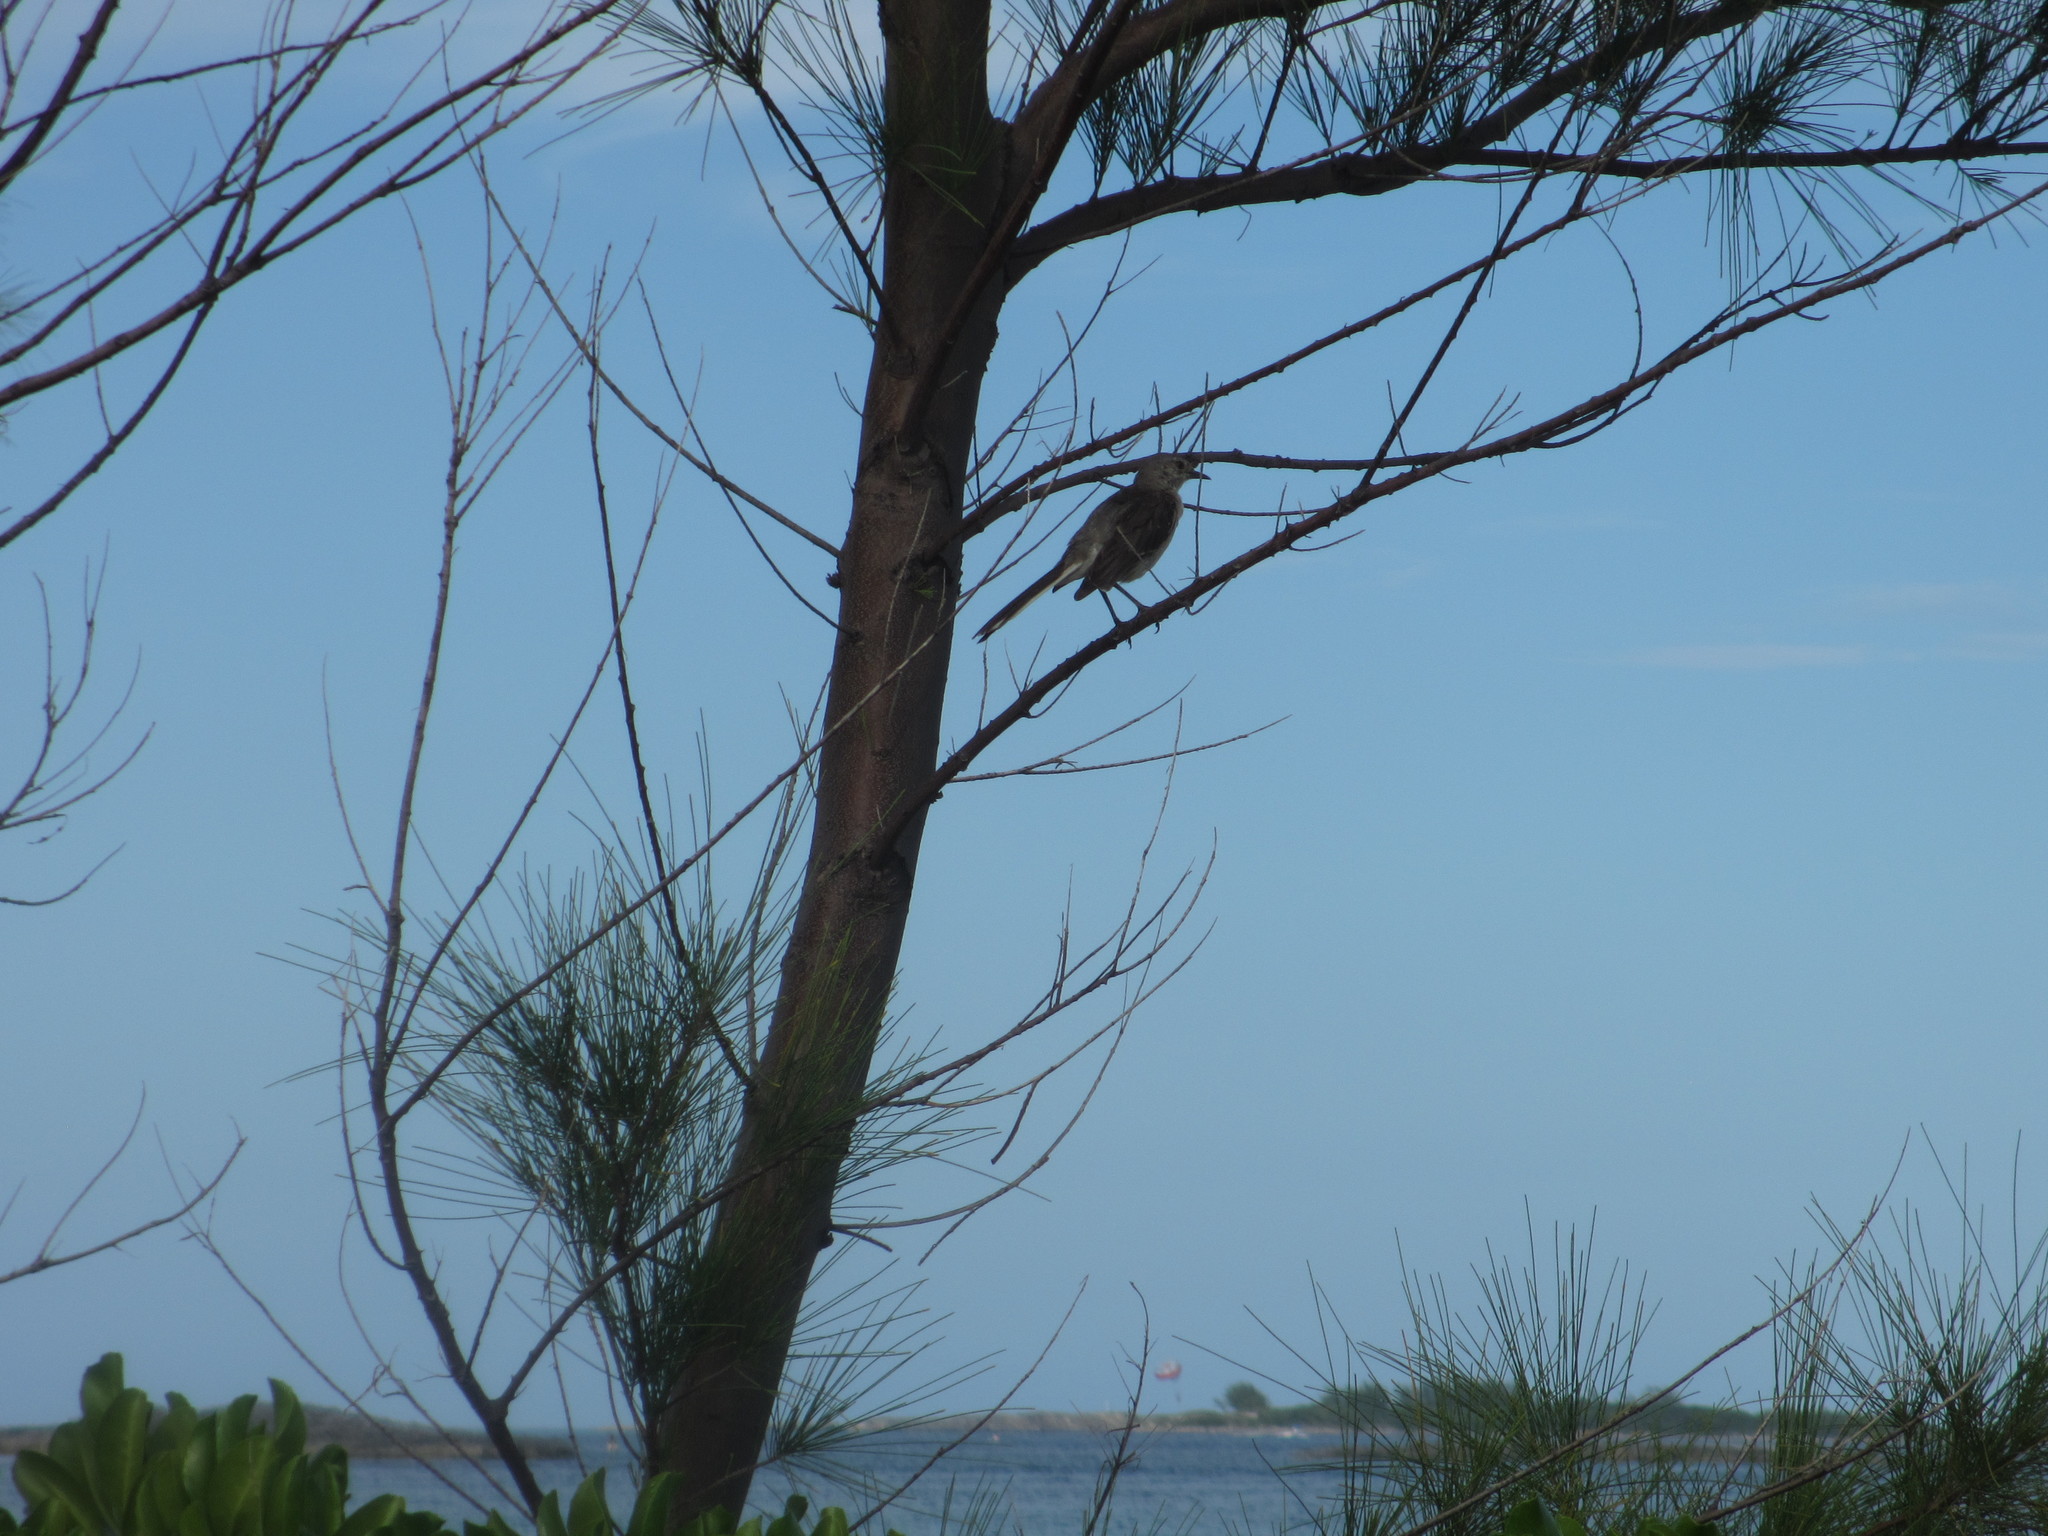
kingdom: Animalia
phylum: Chordata
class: Aves
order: Passeriformes
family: Mimidae
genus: Mimus
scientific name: Mimus polyglottos
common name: Northern mockingbird
